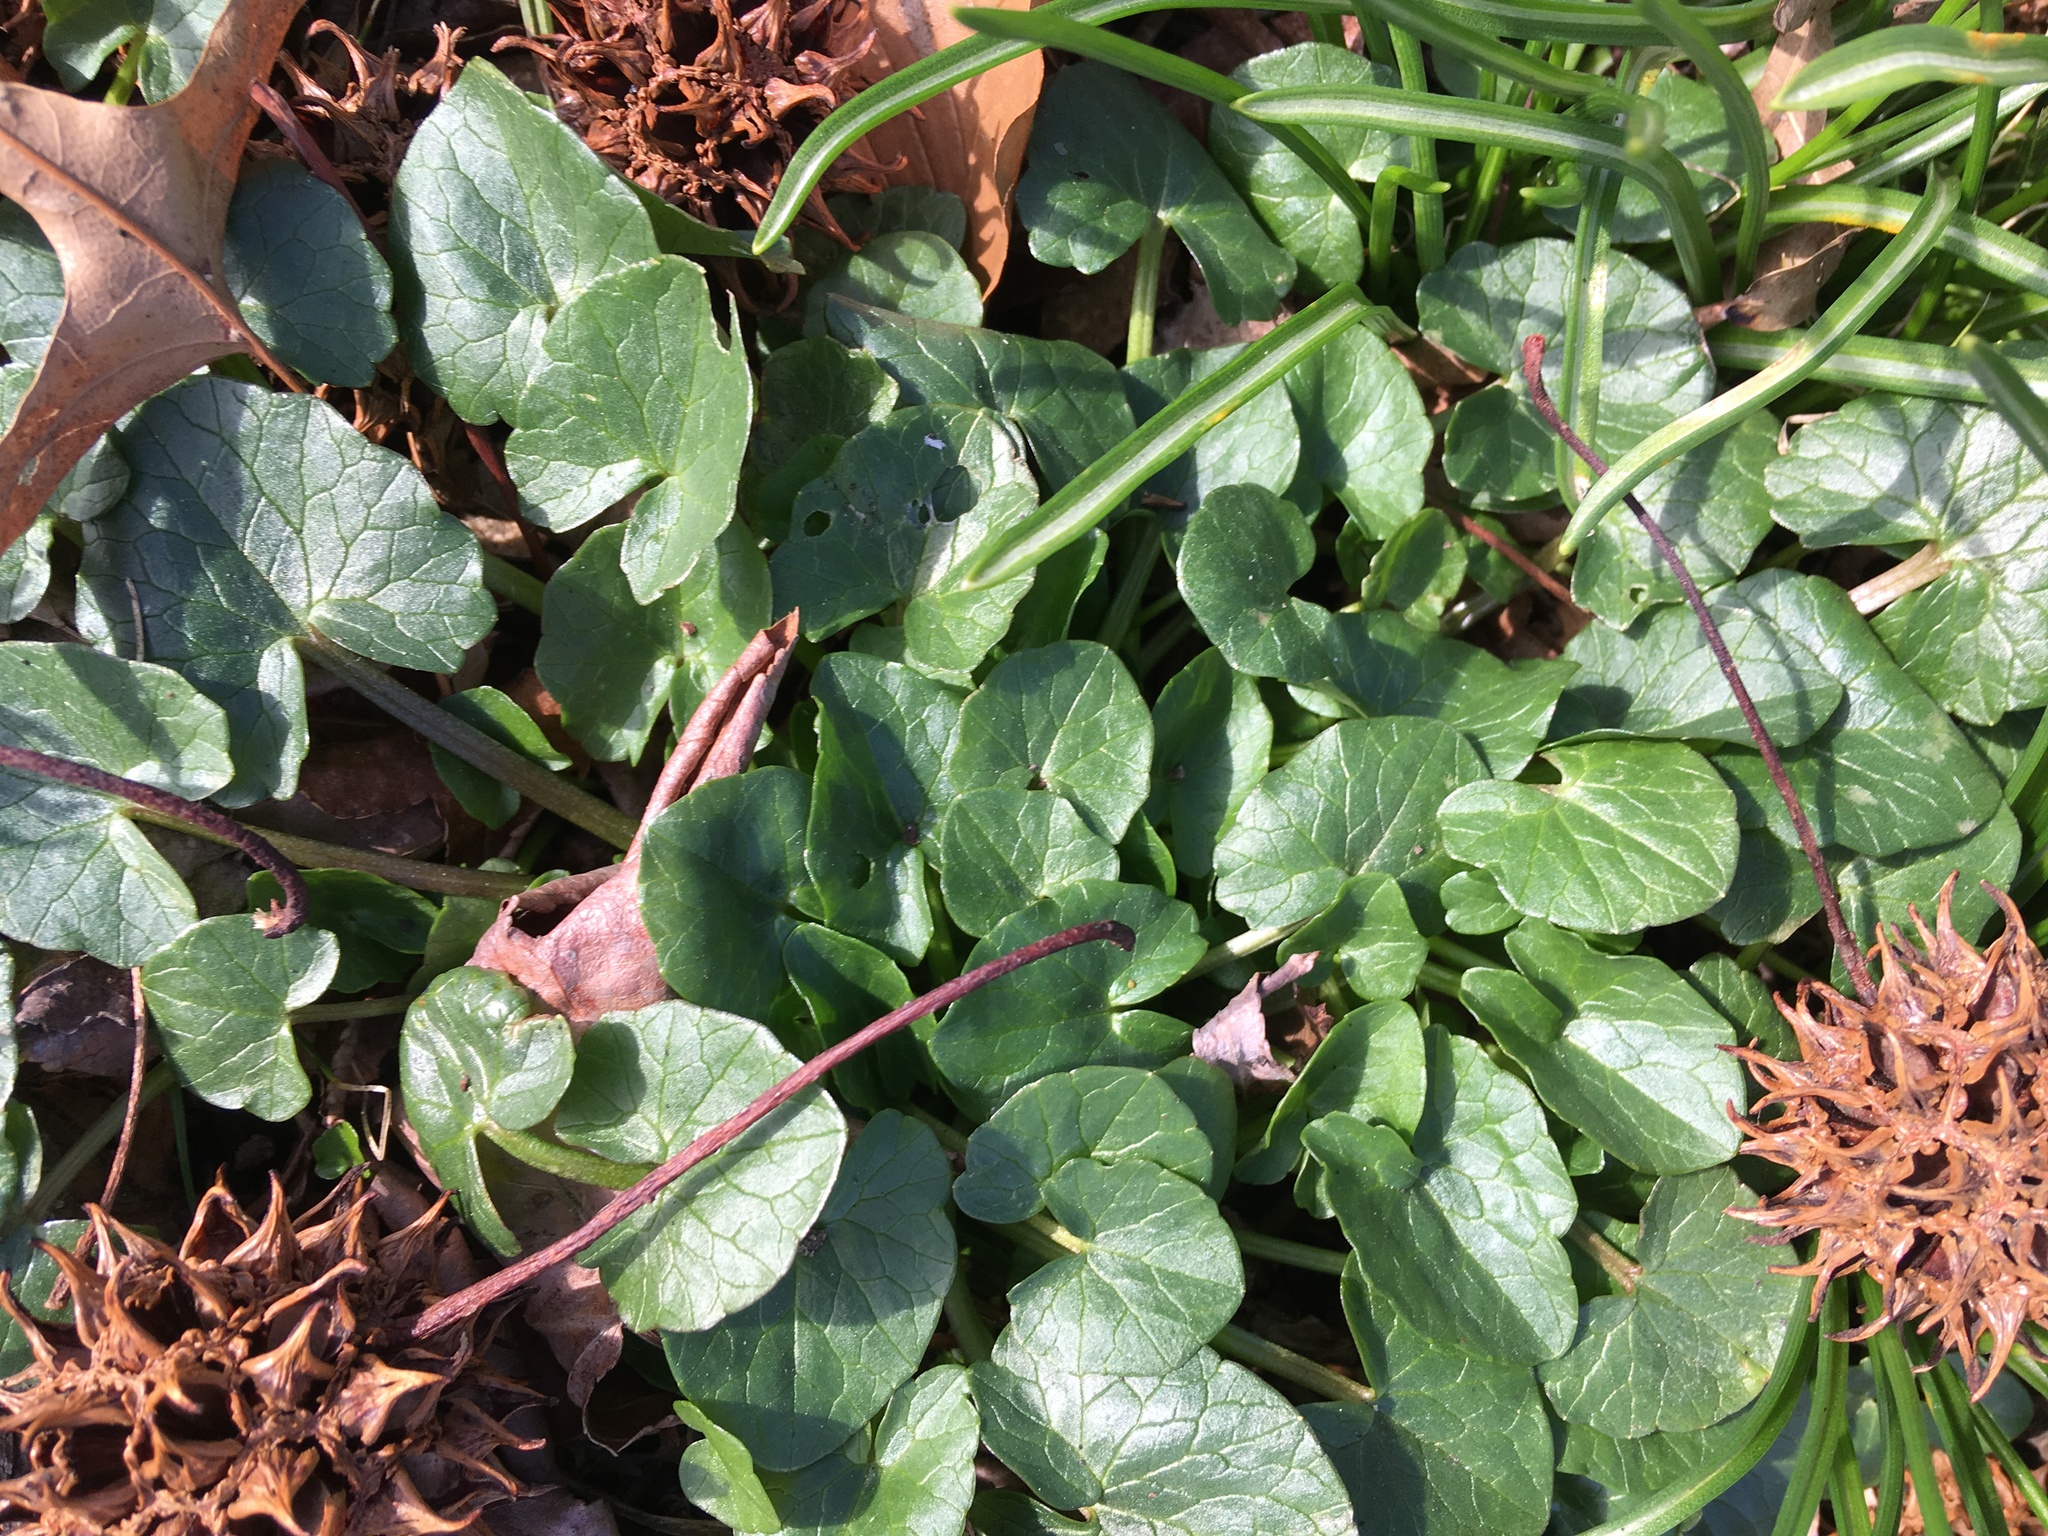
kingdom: Plantae
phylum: Tracheophyta
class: Magnoliopsida
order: Ranunculales
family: Ranunculaceae
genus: Ficaria
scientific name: Ficaria verna
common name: Lesser celandine
